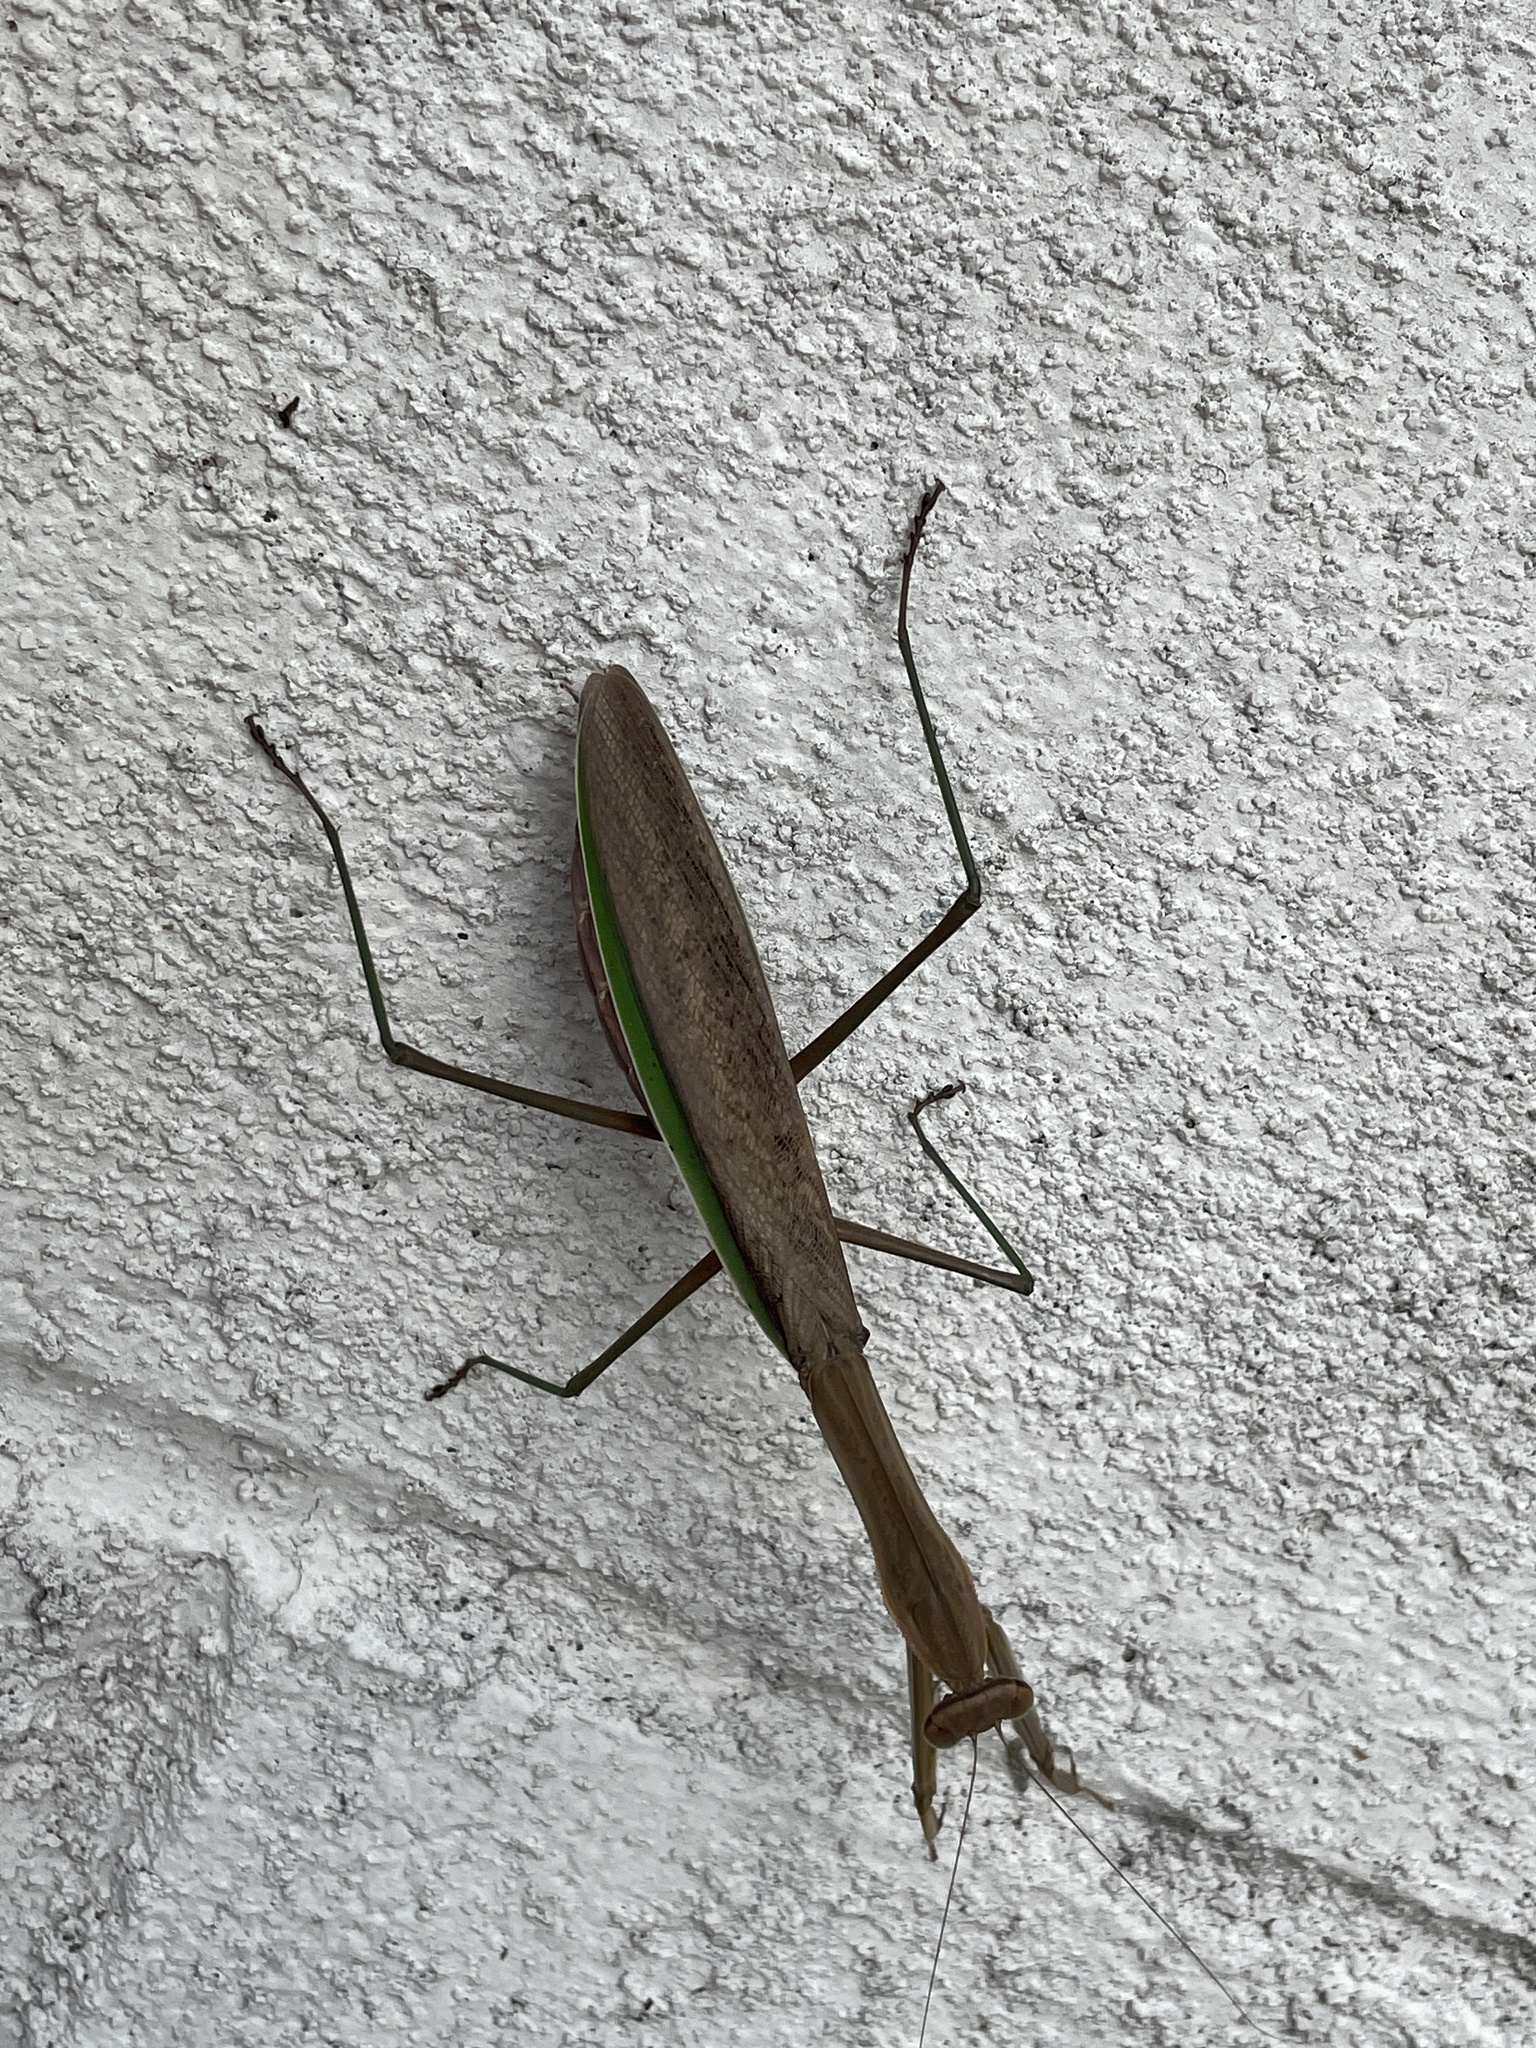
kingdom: Animalia
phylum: Arthropoda
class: Insecta
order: Mantodea
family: Mantidae
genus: Tenodera
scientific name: Tenodera sinensis
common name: Chinese mantis
